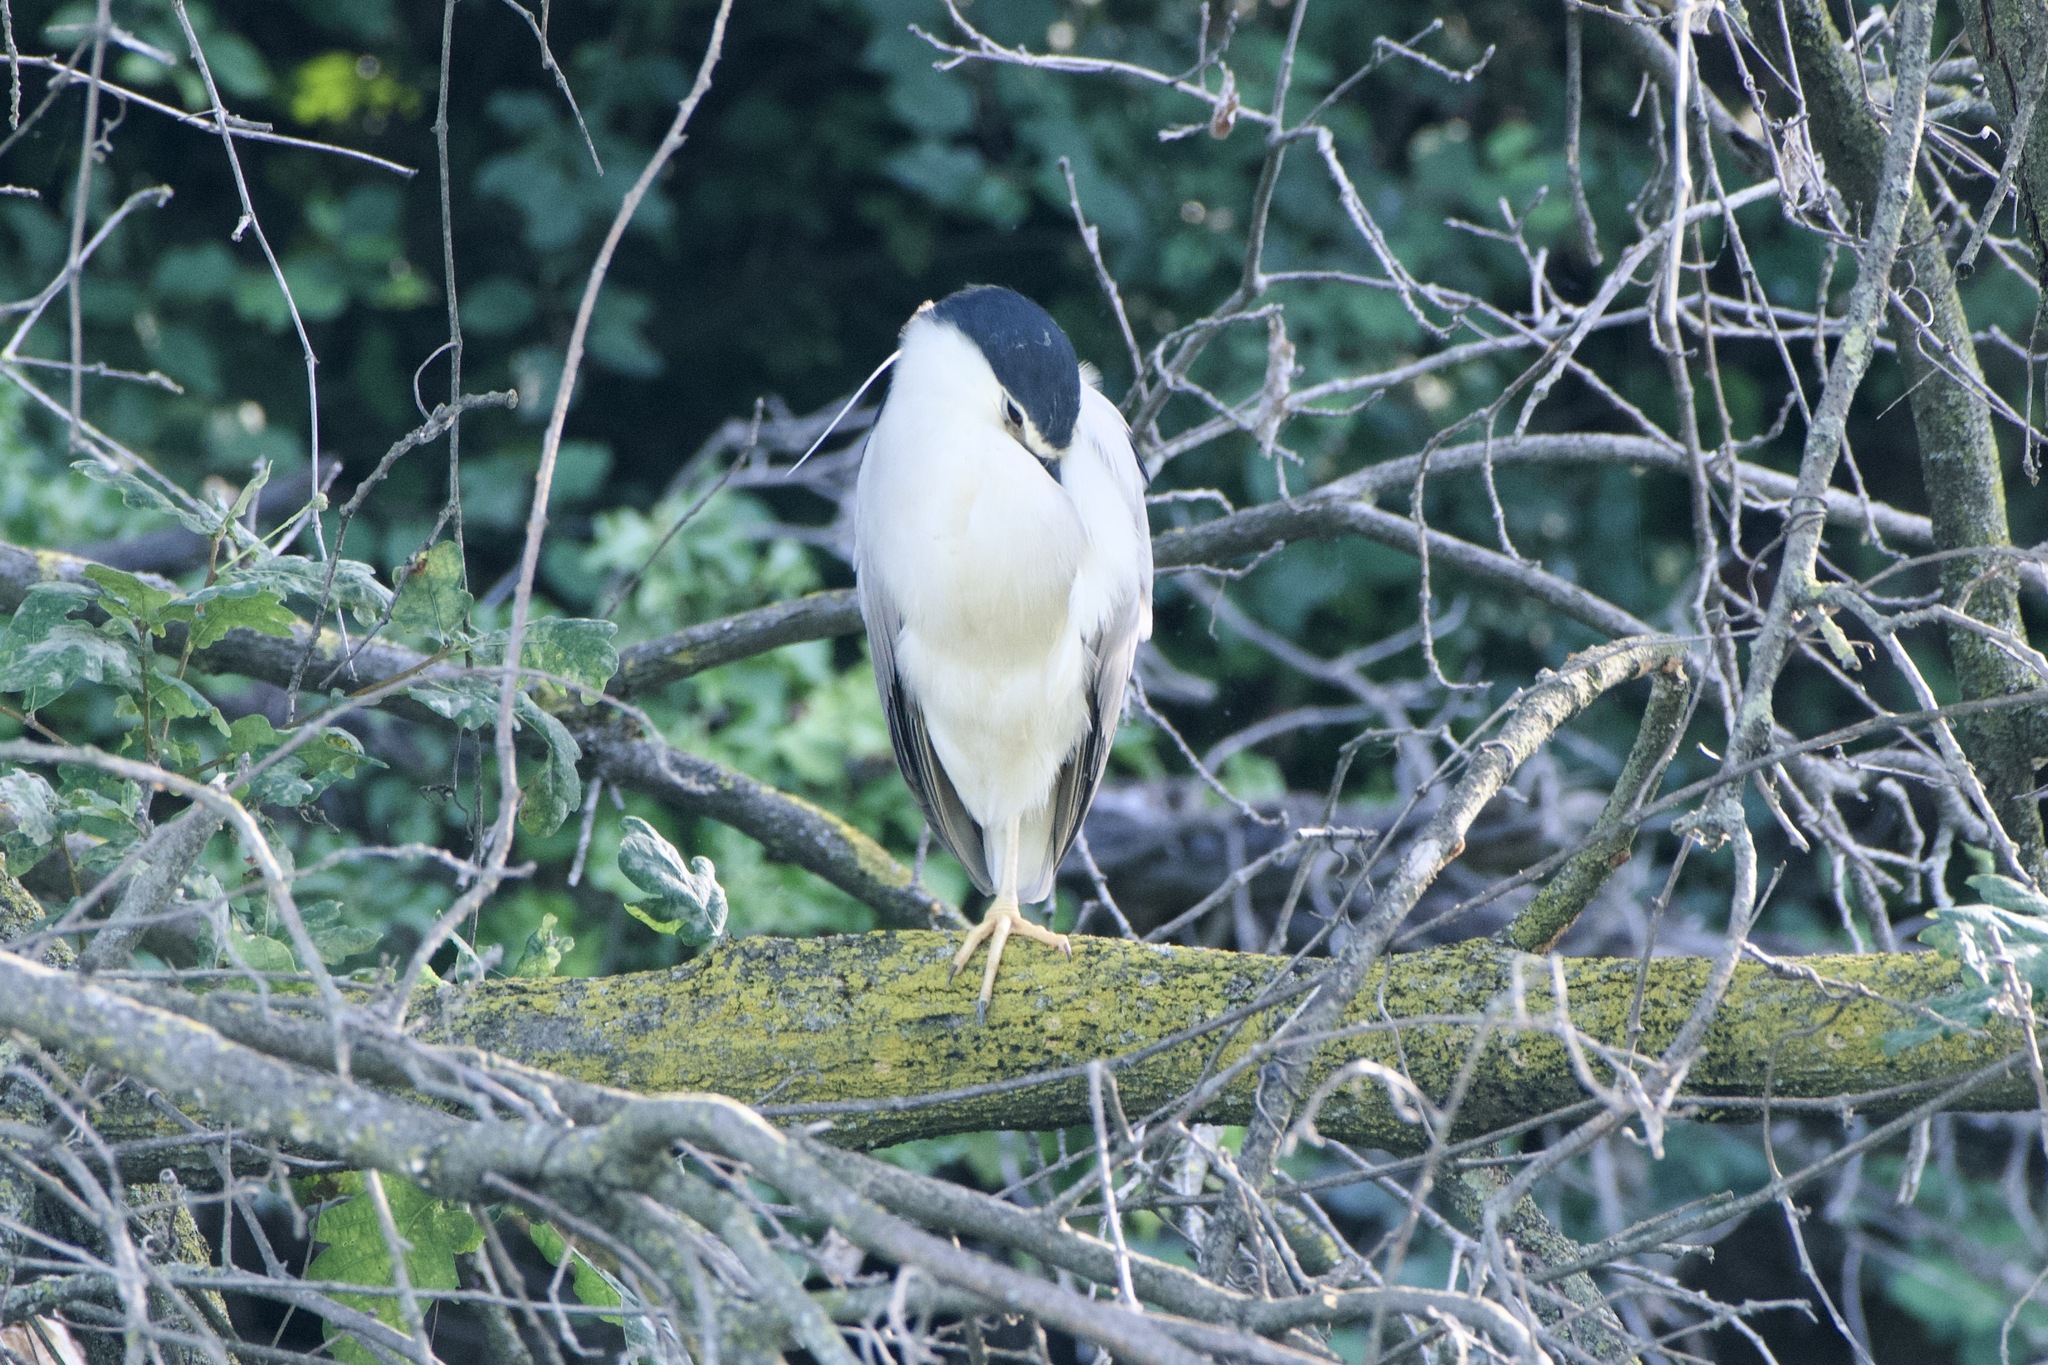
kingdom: Animalia
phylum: Chordata
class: Aves
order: Pelecaniformes
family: Ardeidae
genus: Nycticorax
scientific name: Nycticorax nycticorax
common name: Black-crowned night heron
